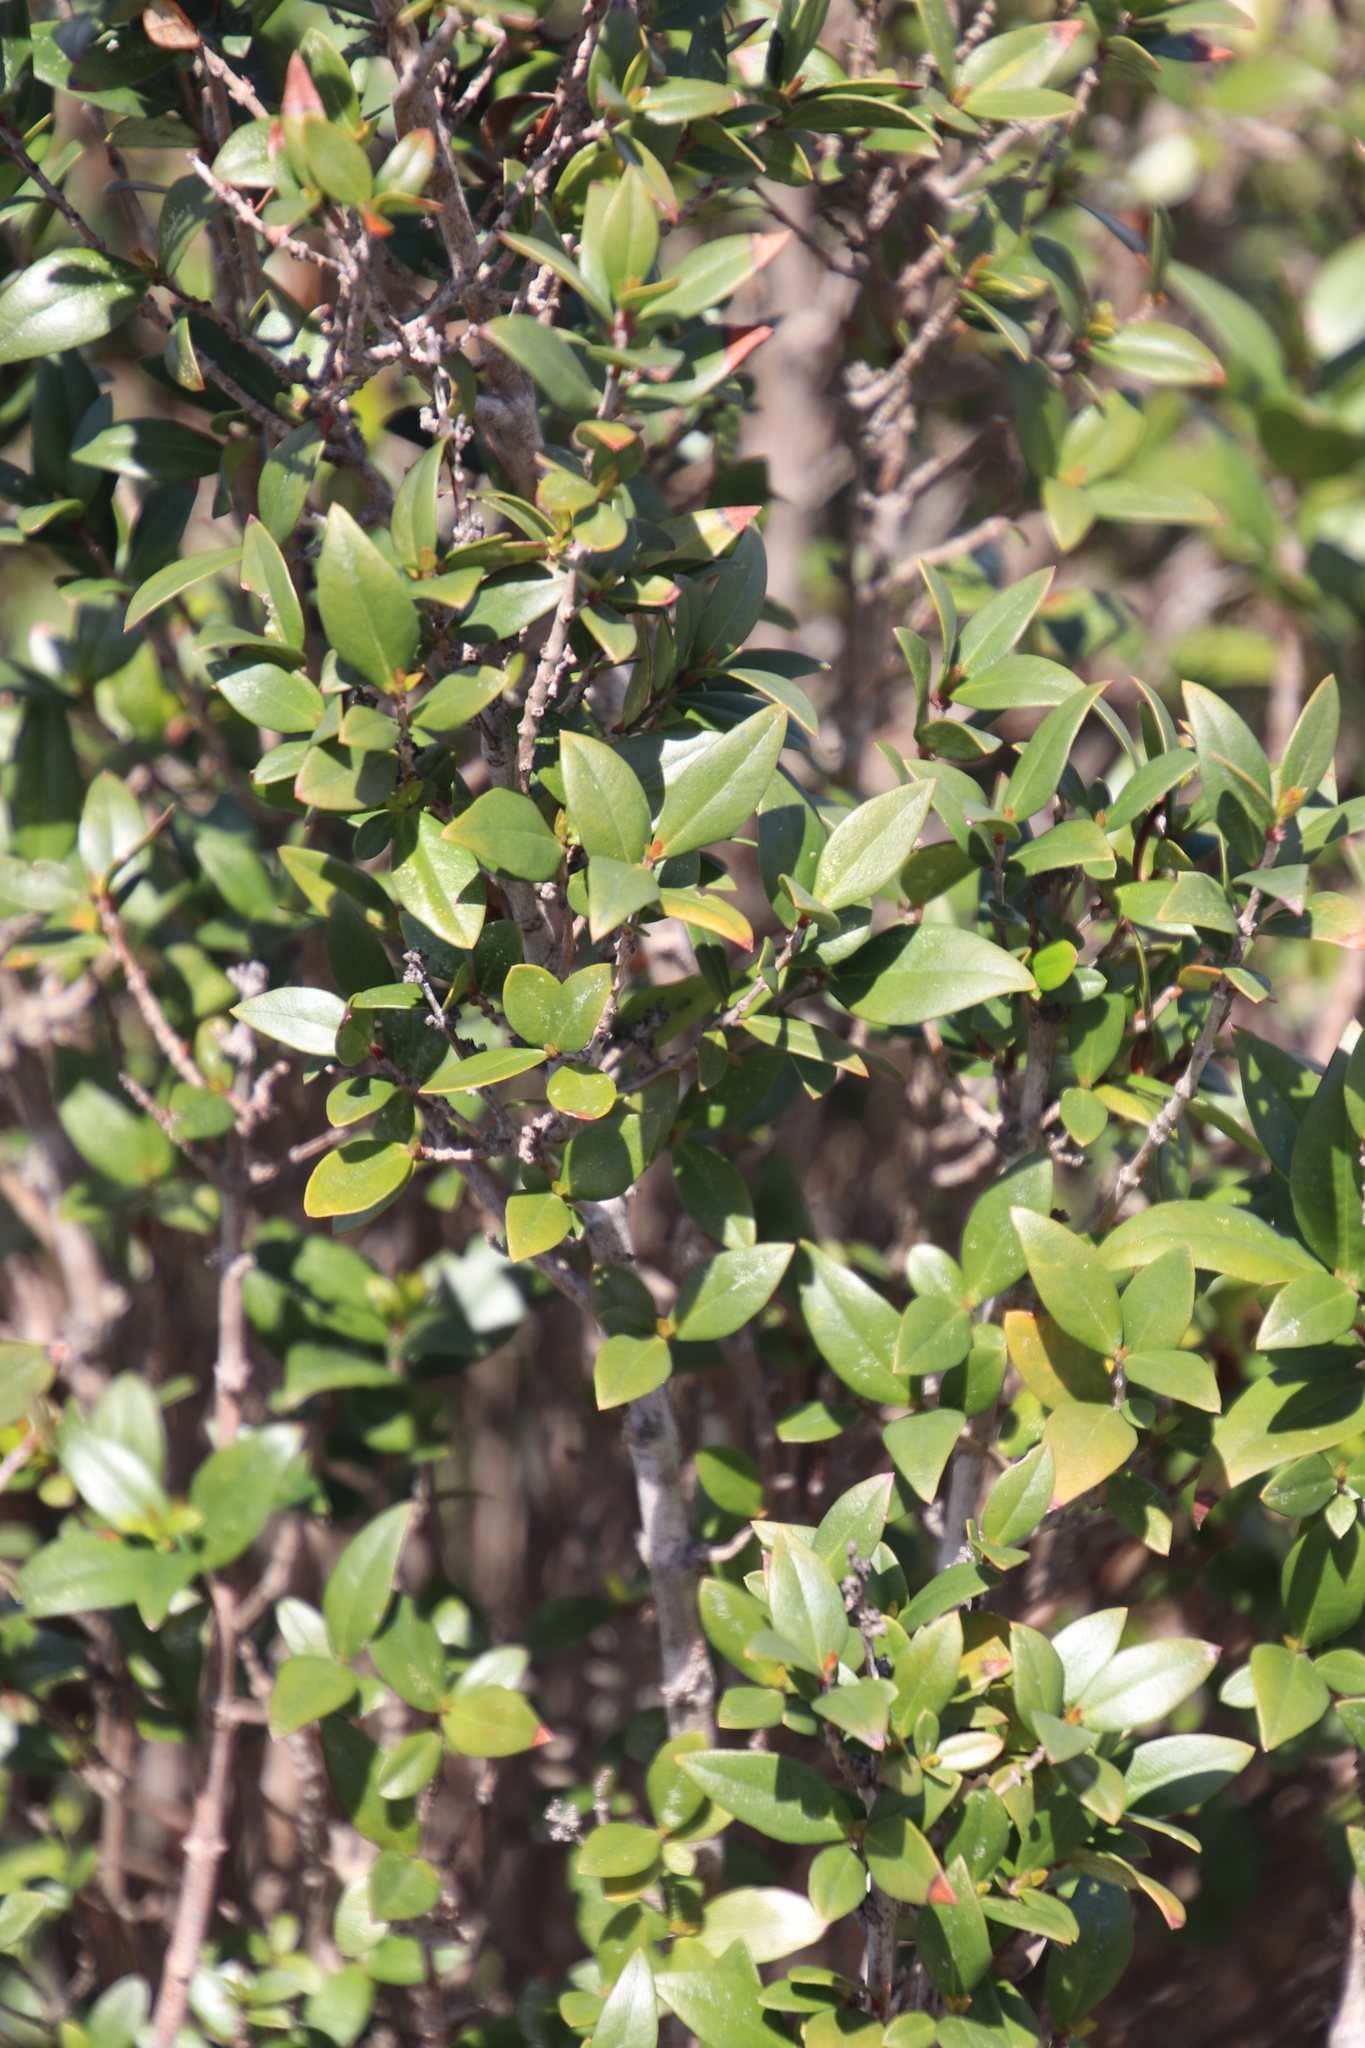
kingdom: Plantae
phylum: Tracheophyta
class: Magnoliopsida
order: Myrtales
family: Myrtaceae
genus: Myrtus
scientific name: Myrtus communis
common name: Myrtle
